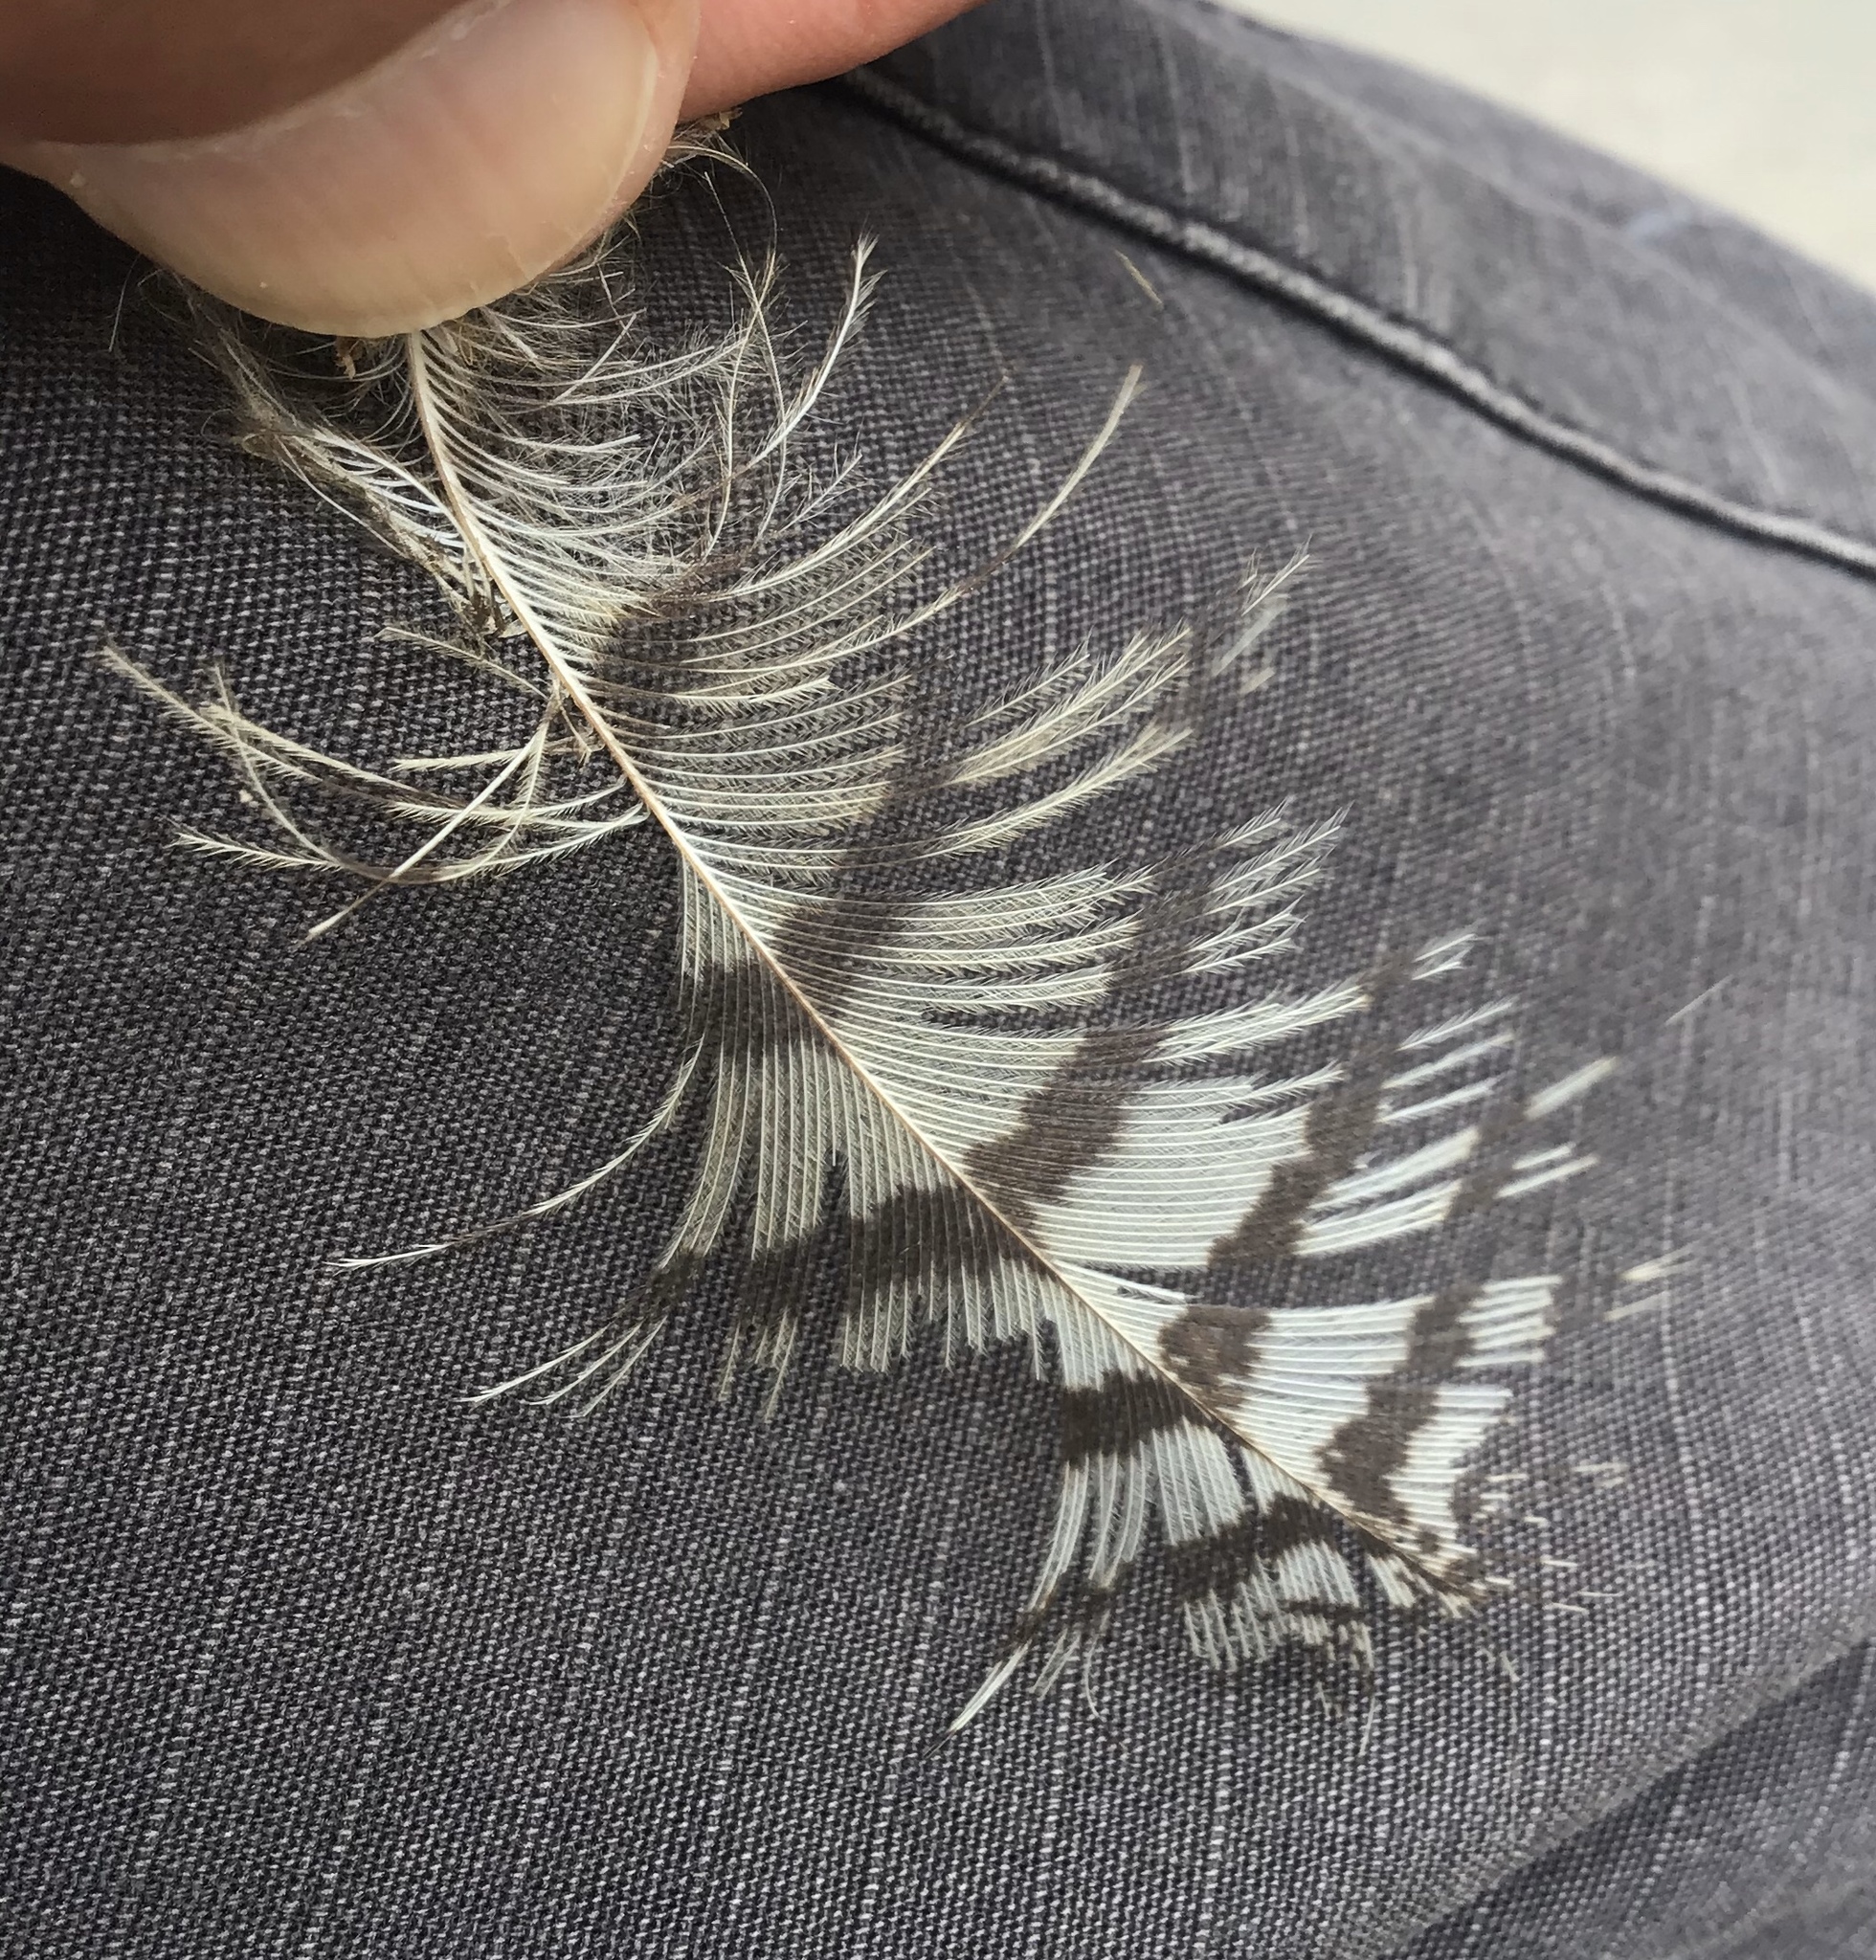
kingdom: Animalia
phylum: Chordata
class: Aves
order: Strigiformes
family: Strigidae
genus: Bubo
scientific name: Bubo virginianus
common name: Great horned owl
